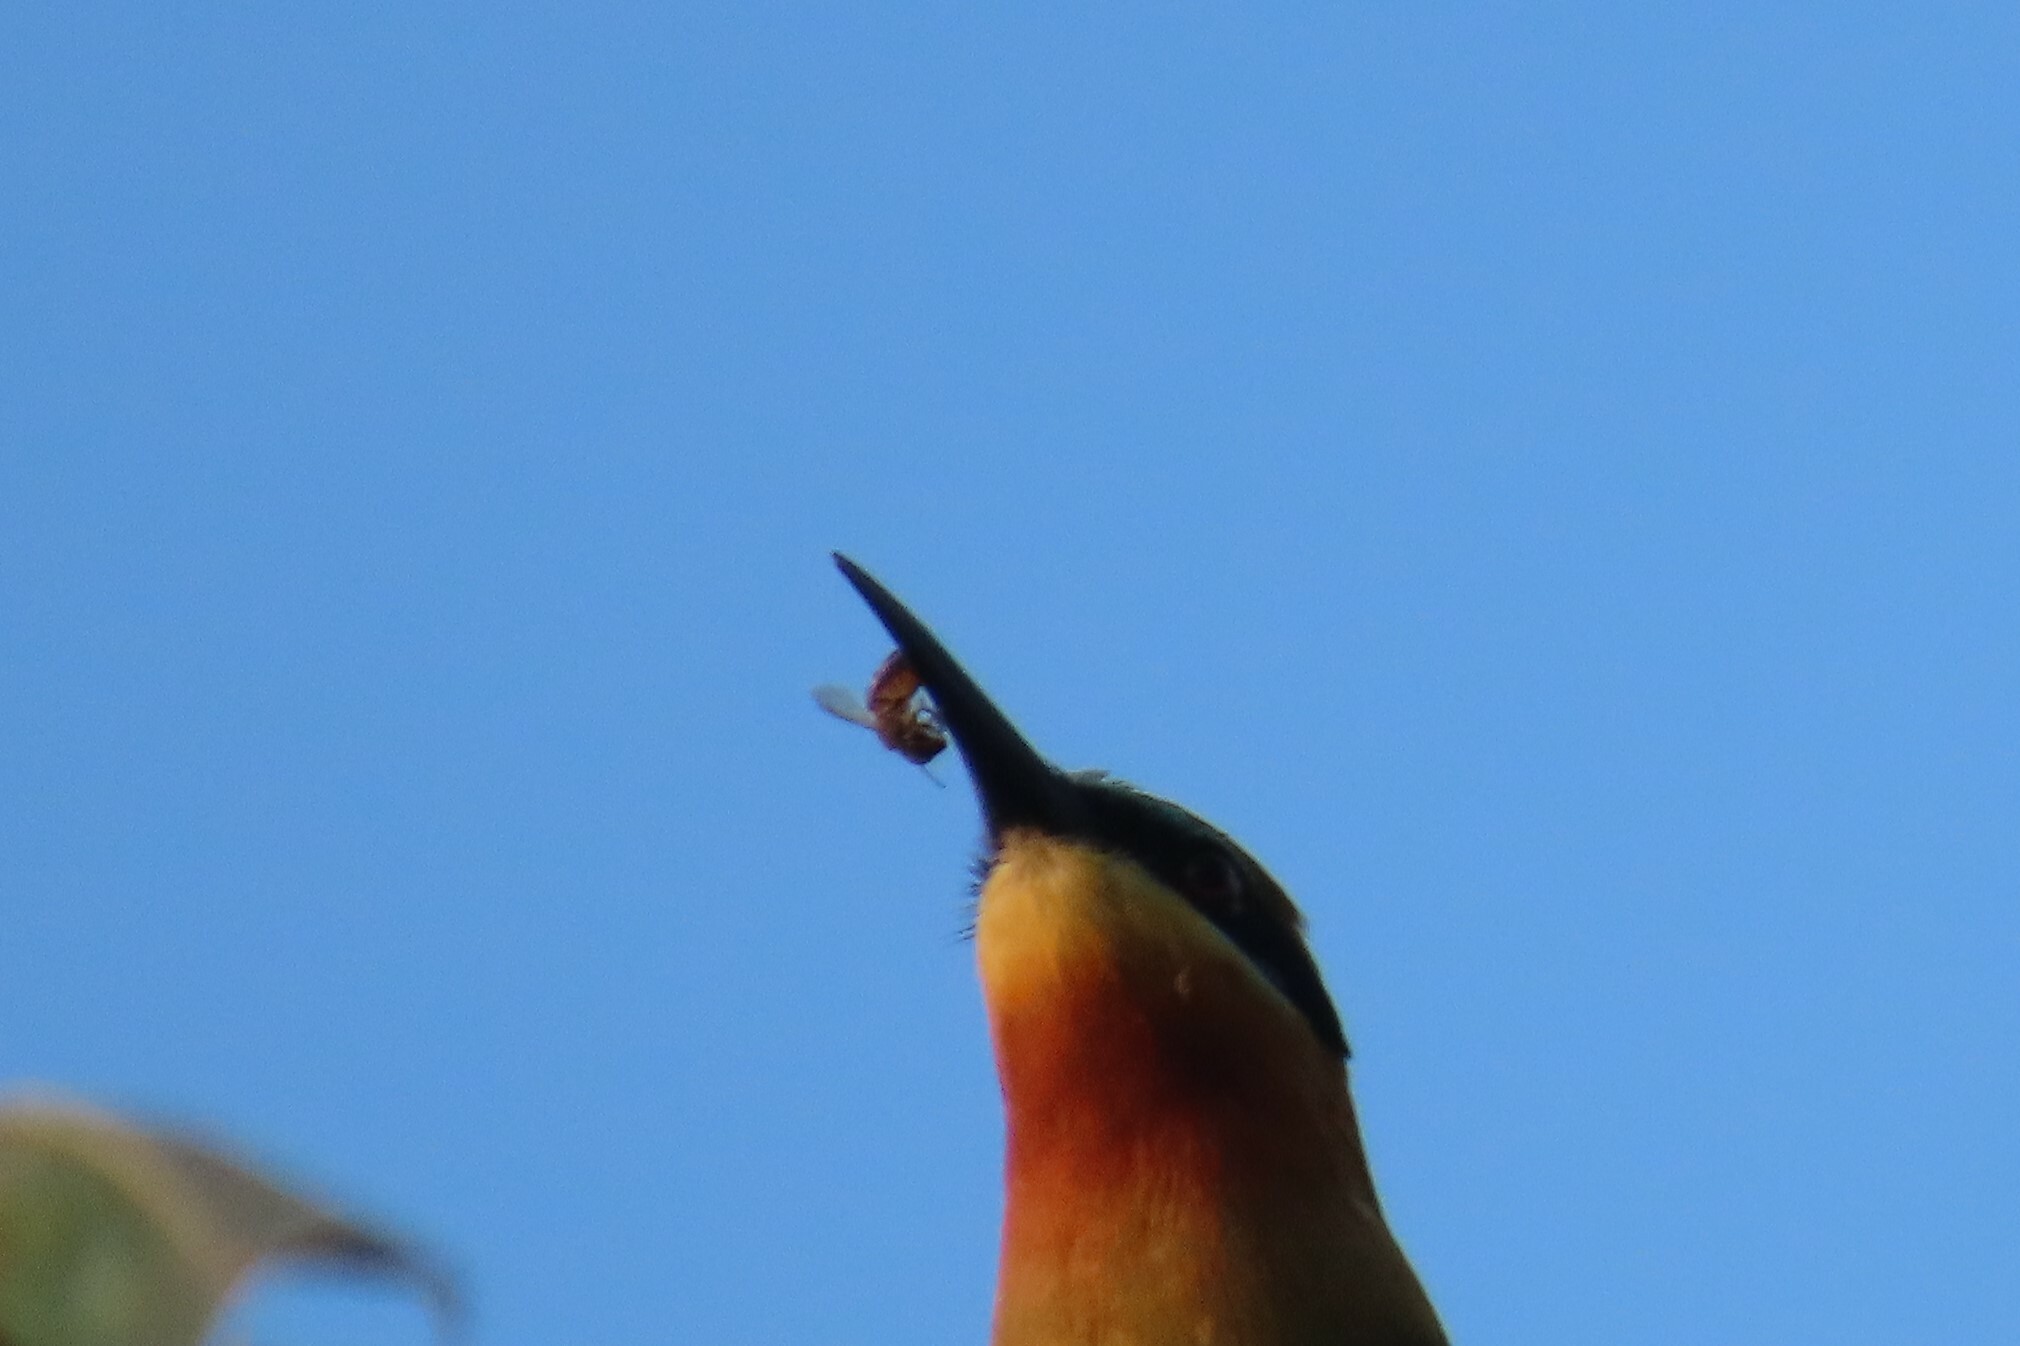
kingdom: Animalia
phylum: Arthropoda
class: Insecta
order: Hymenoptera
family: Apidae
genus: Apis
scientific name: Apis cerana
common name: Honey bee
